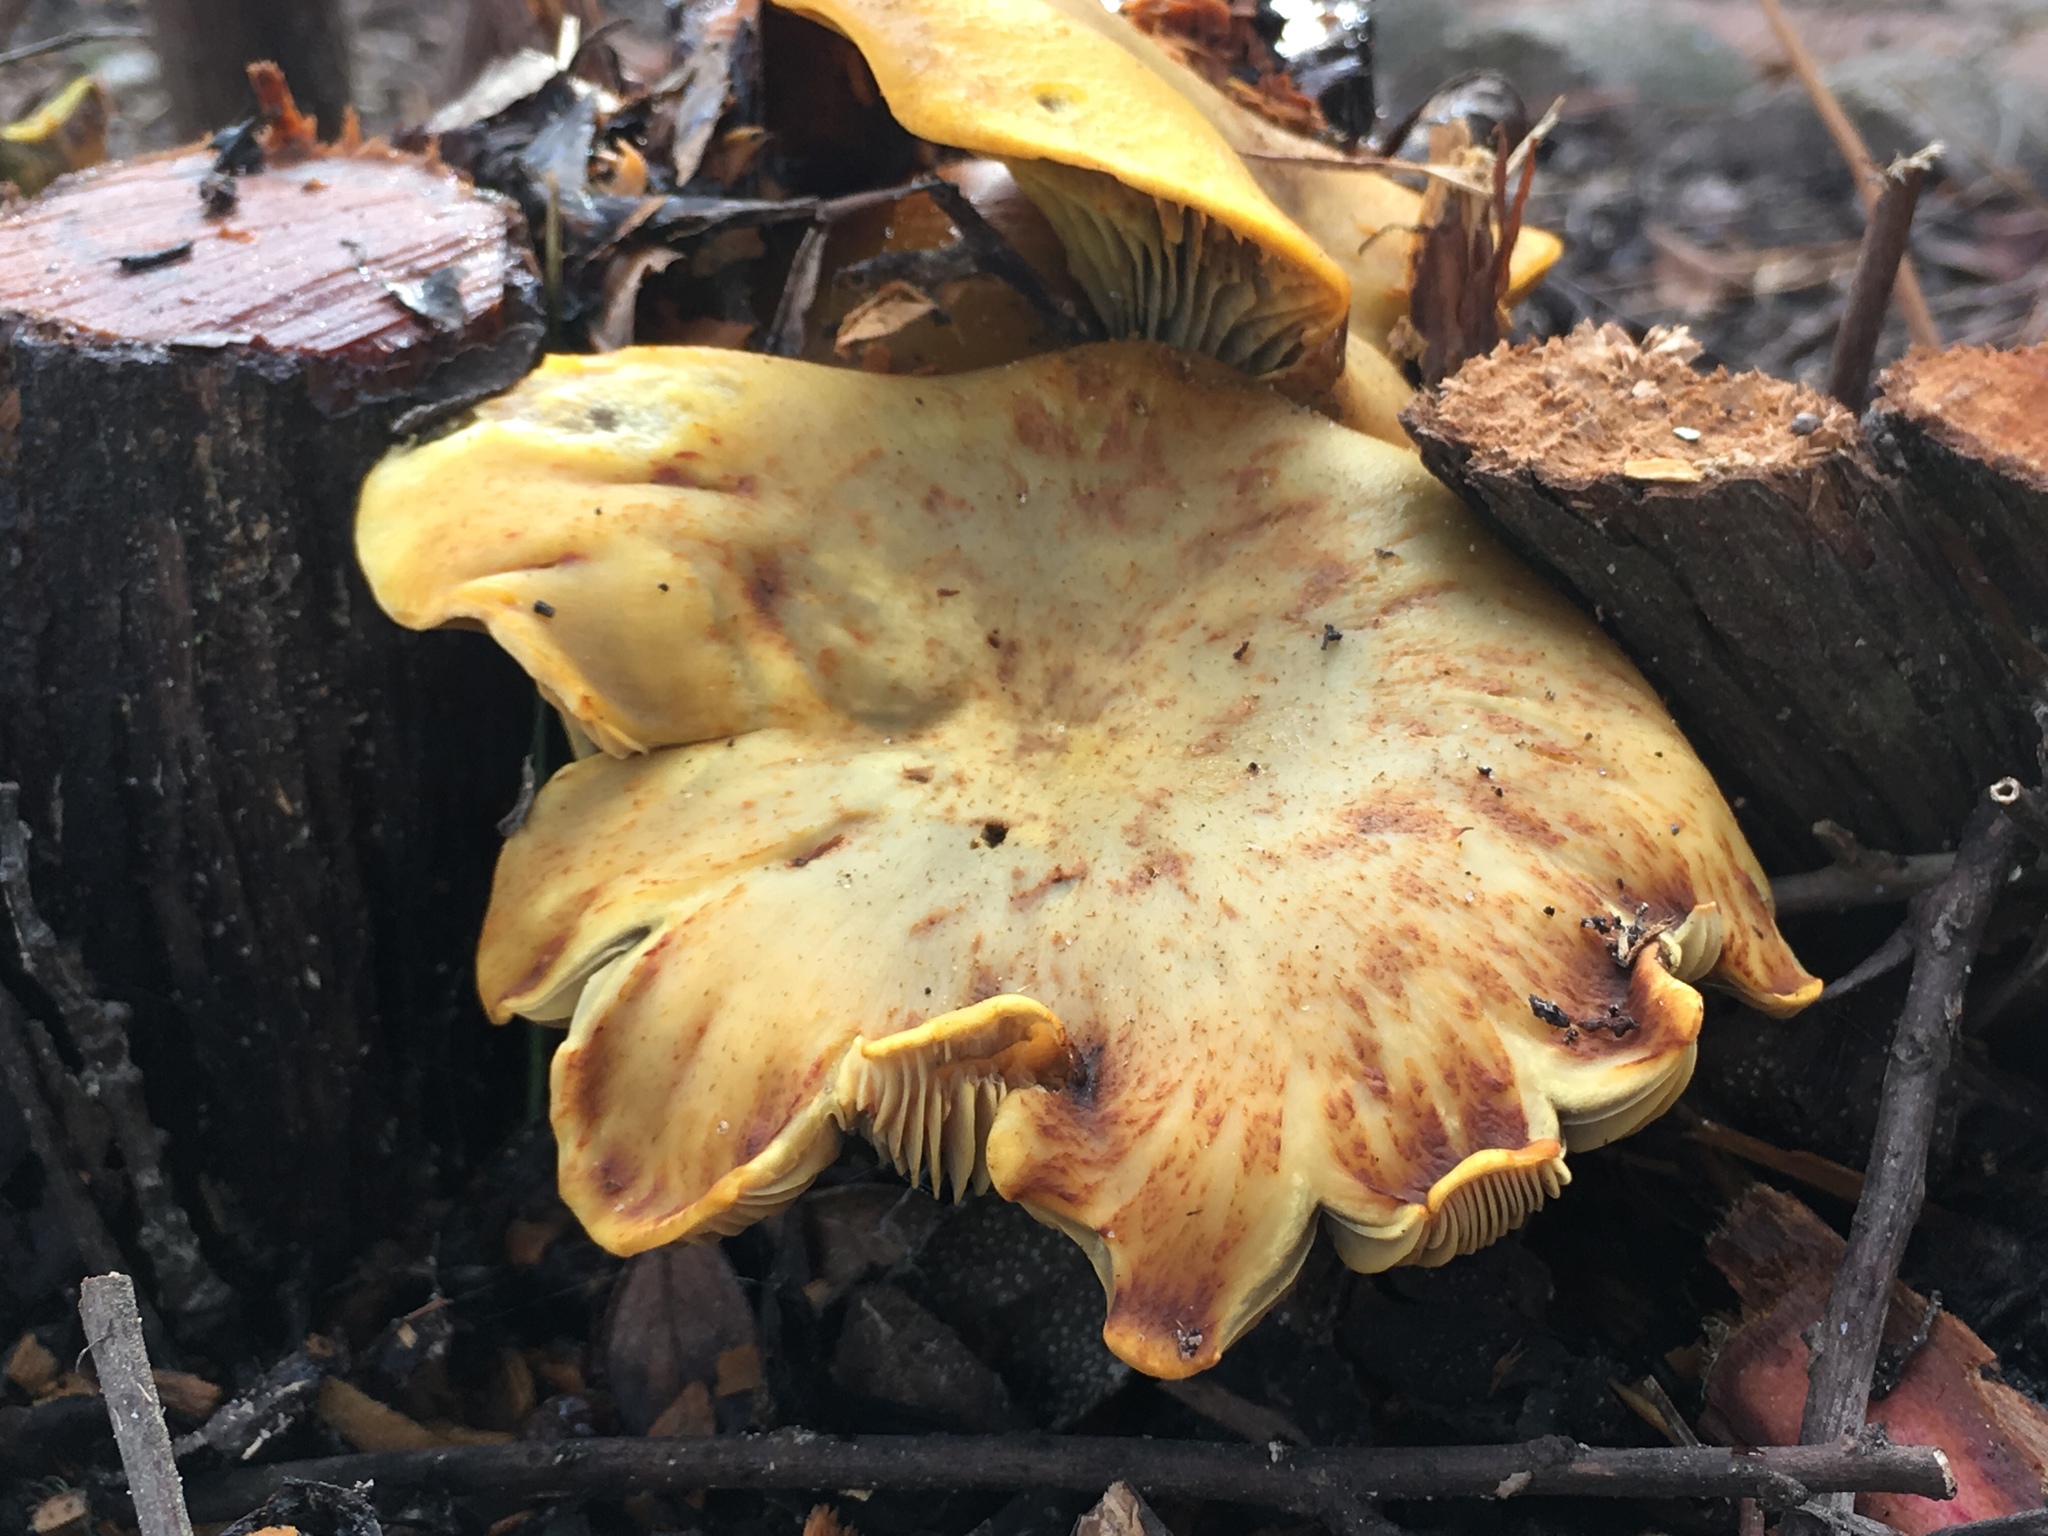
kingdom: Fungi
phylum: Basidiomycota
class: Agaricomycetes
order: Agaricales
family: Omphalotaceae
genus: Omphalotus
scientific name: Omphalotus olivascens
